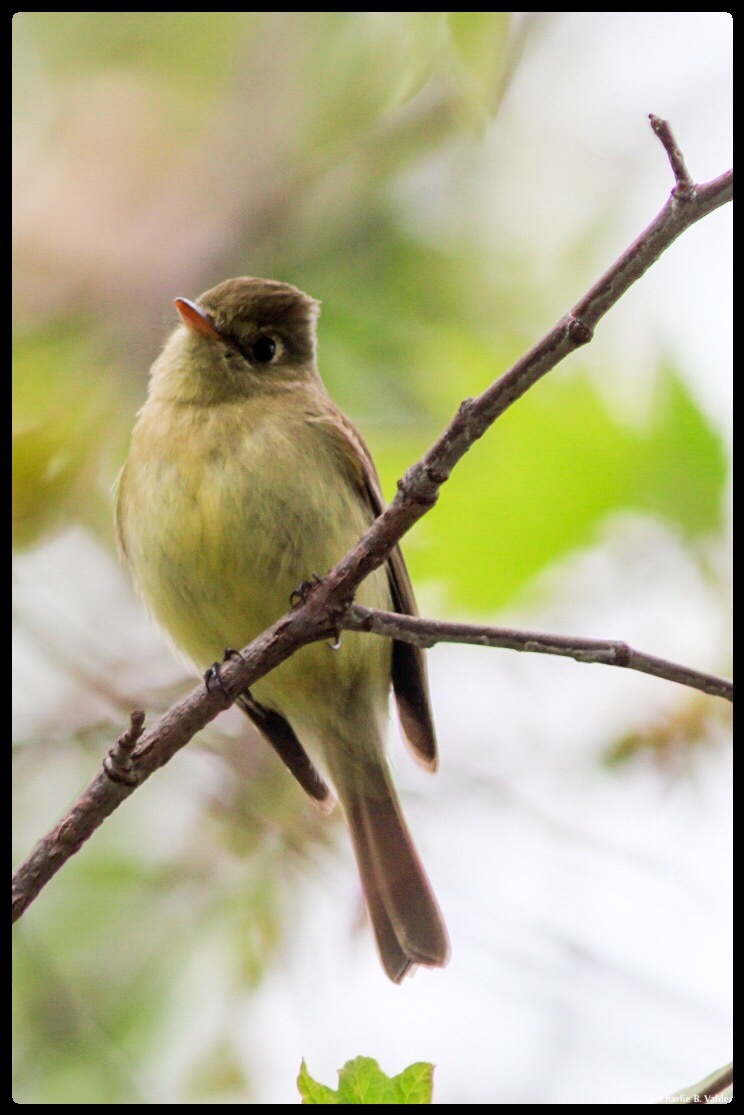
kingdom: Animalia
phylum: Chordata
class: Aves
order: Passeriformes
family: Tyrannidae
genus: Empidonax
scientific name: Empidonax difficilis
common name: Pacific-slope flycatcher
